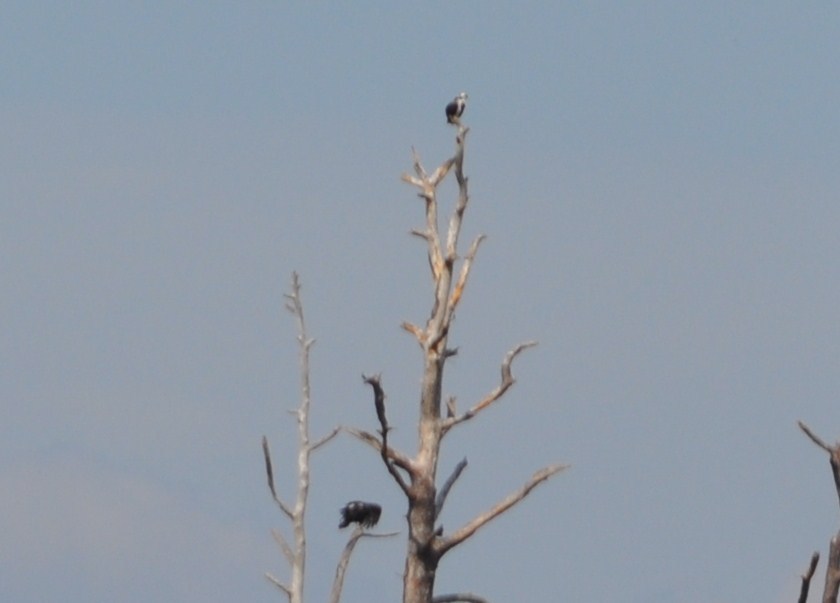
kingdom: Animalia
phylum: Chordata
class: Aves
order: Accipitriformes
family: Pandionidae
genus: Pandion
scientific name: Pandion haliaetus
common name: Osprey
